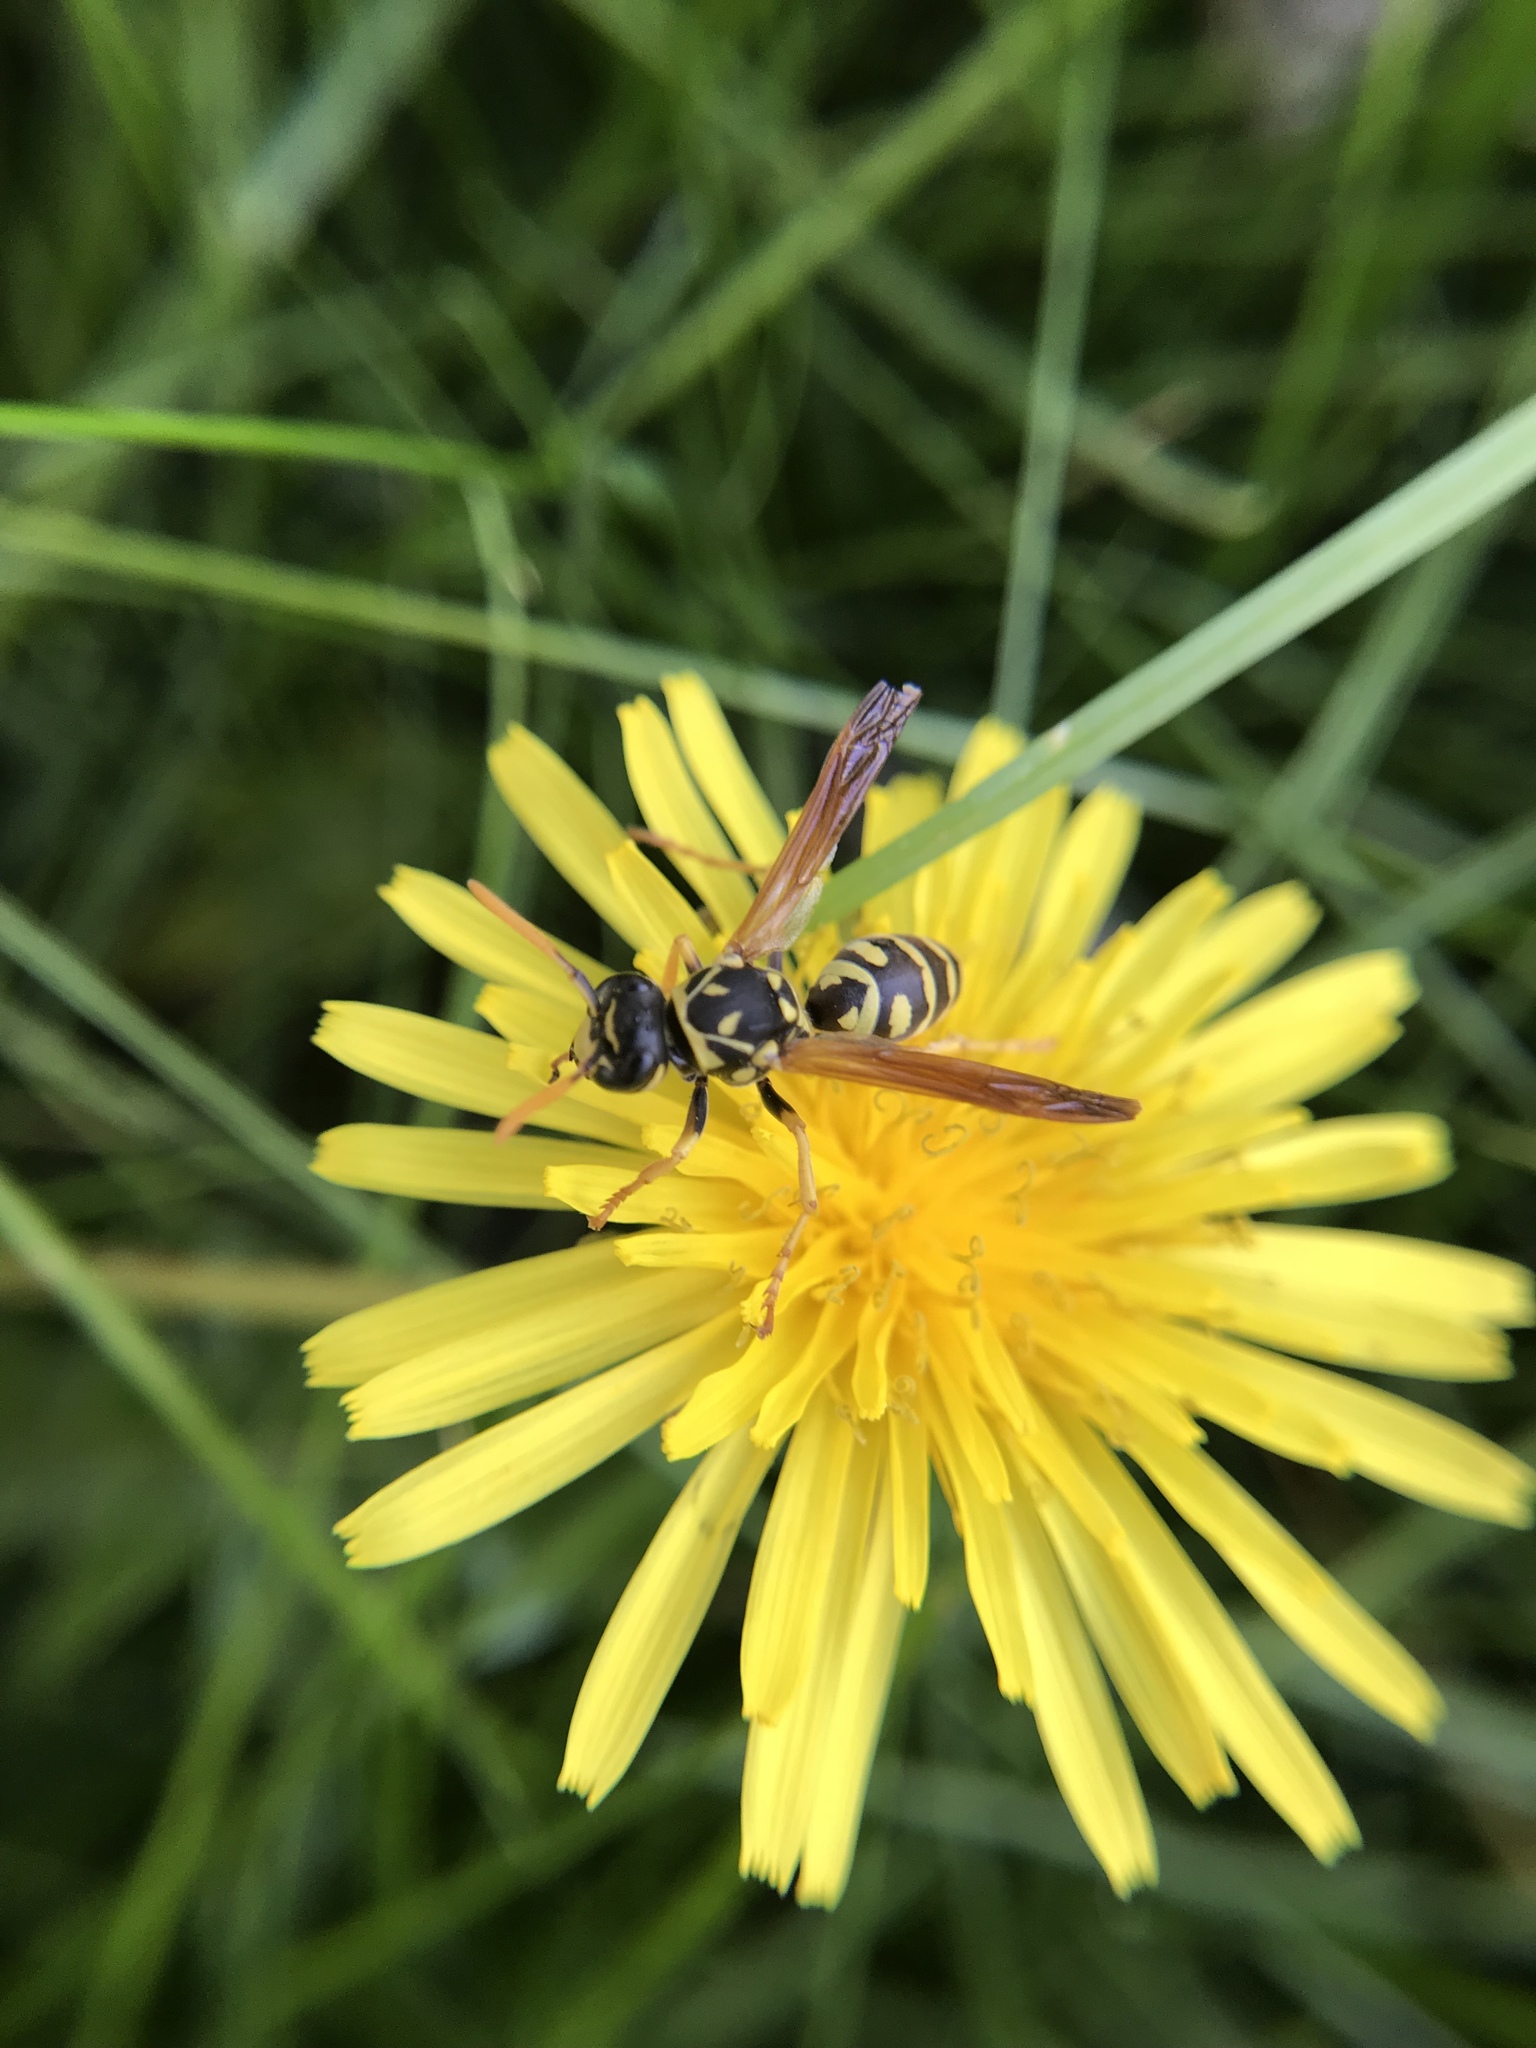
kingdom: Animalia
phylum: Arthropoda
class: Insecta
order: Hymenoptera
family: Eumenidae
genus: Polistes
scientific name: Polistes dominula
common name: Paper wasp
